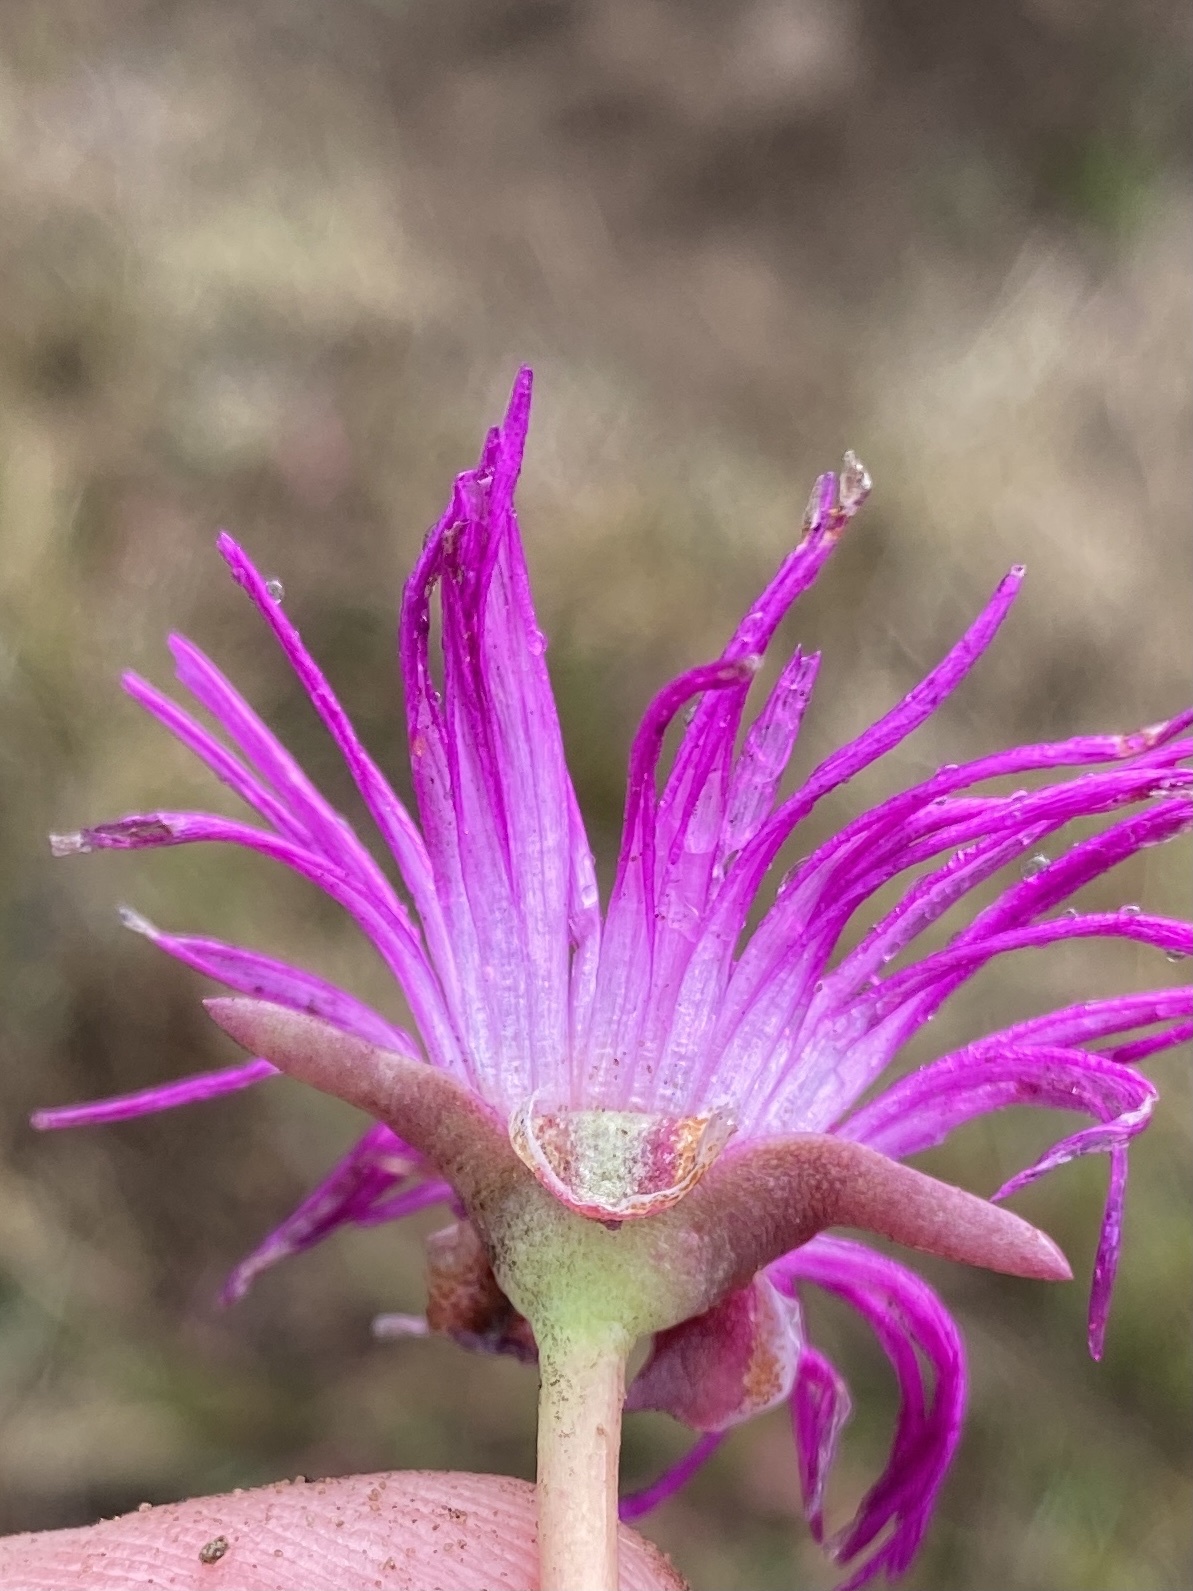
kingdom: Plantae
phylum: Tracheophyta
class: Magnoliopsida
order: Caryophyllales
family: Aizoaceae
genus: Jordaaniella
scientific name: Jordaaniella dubia
